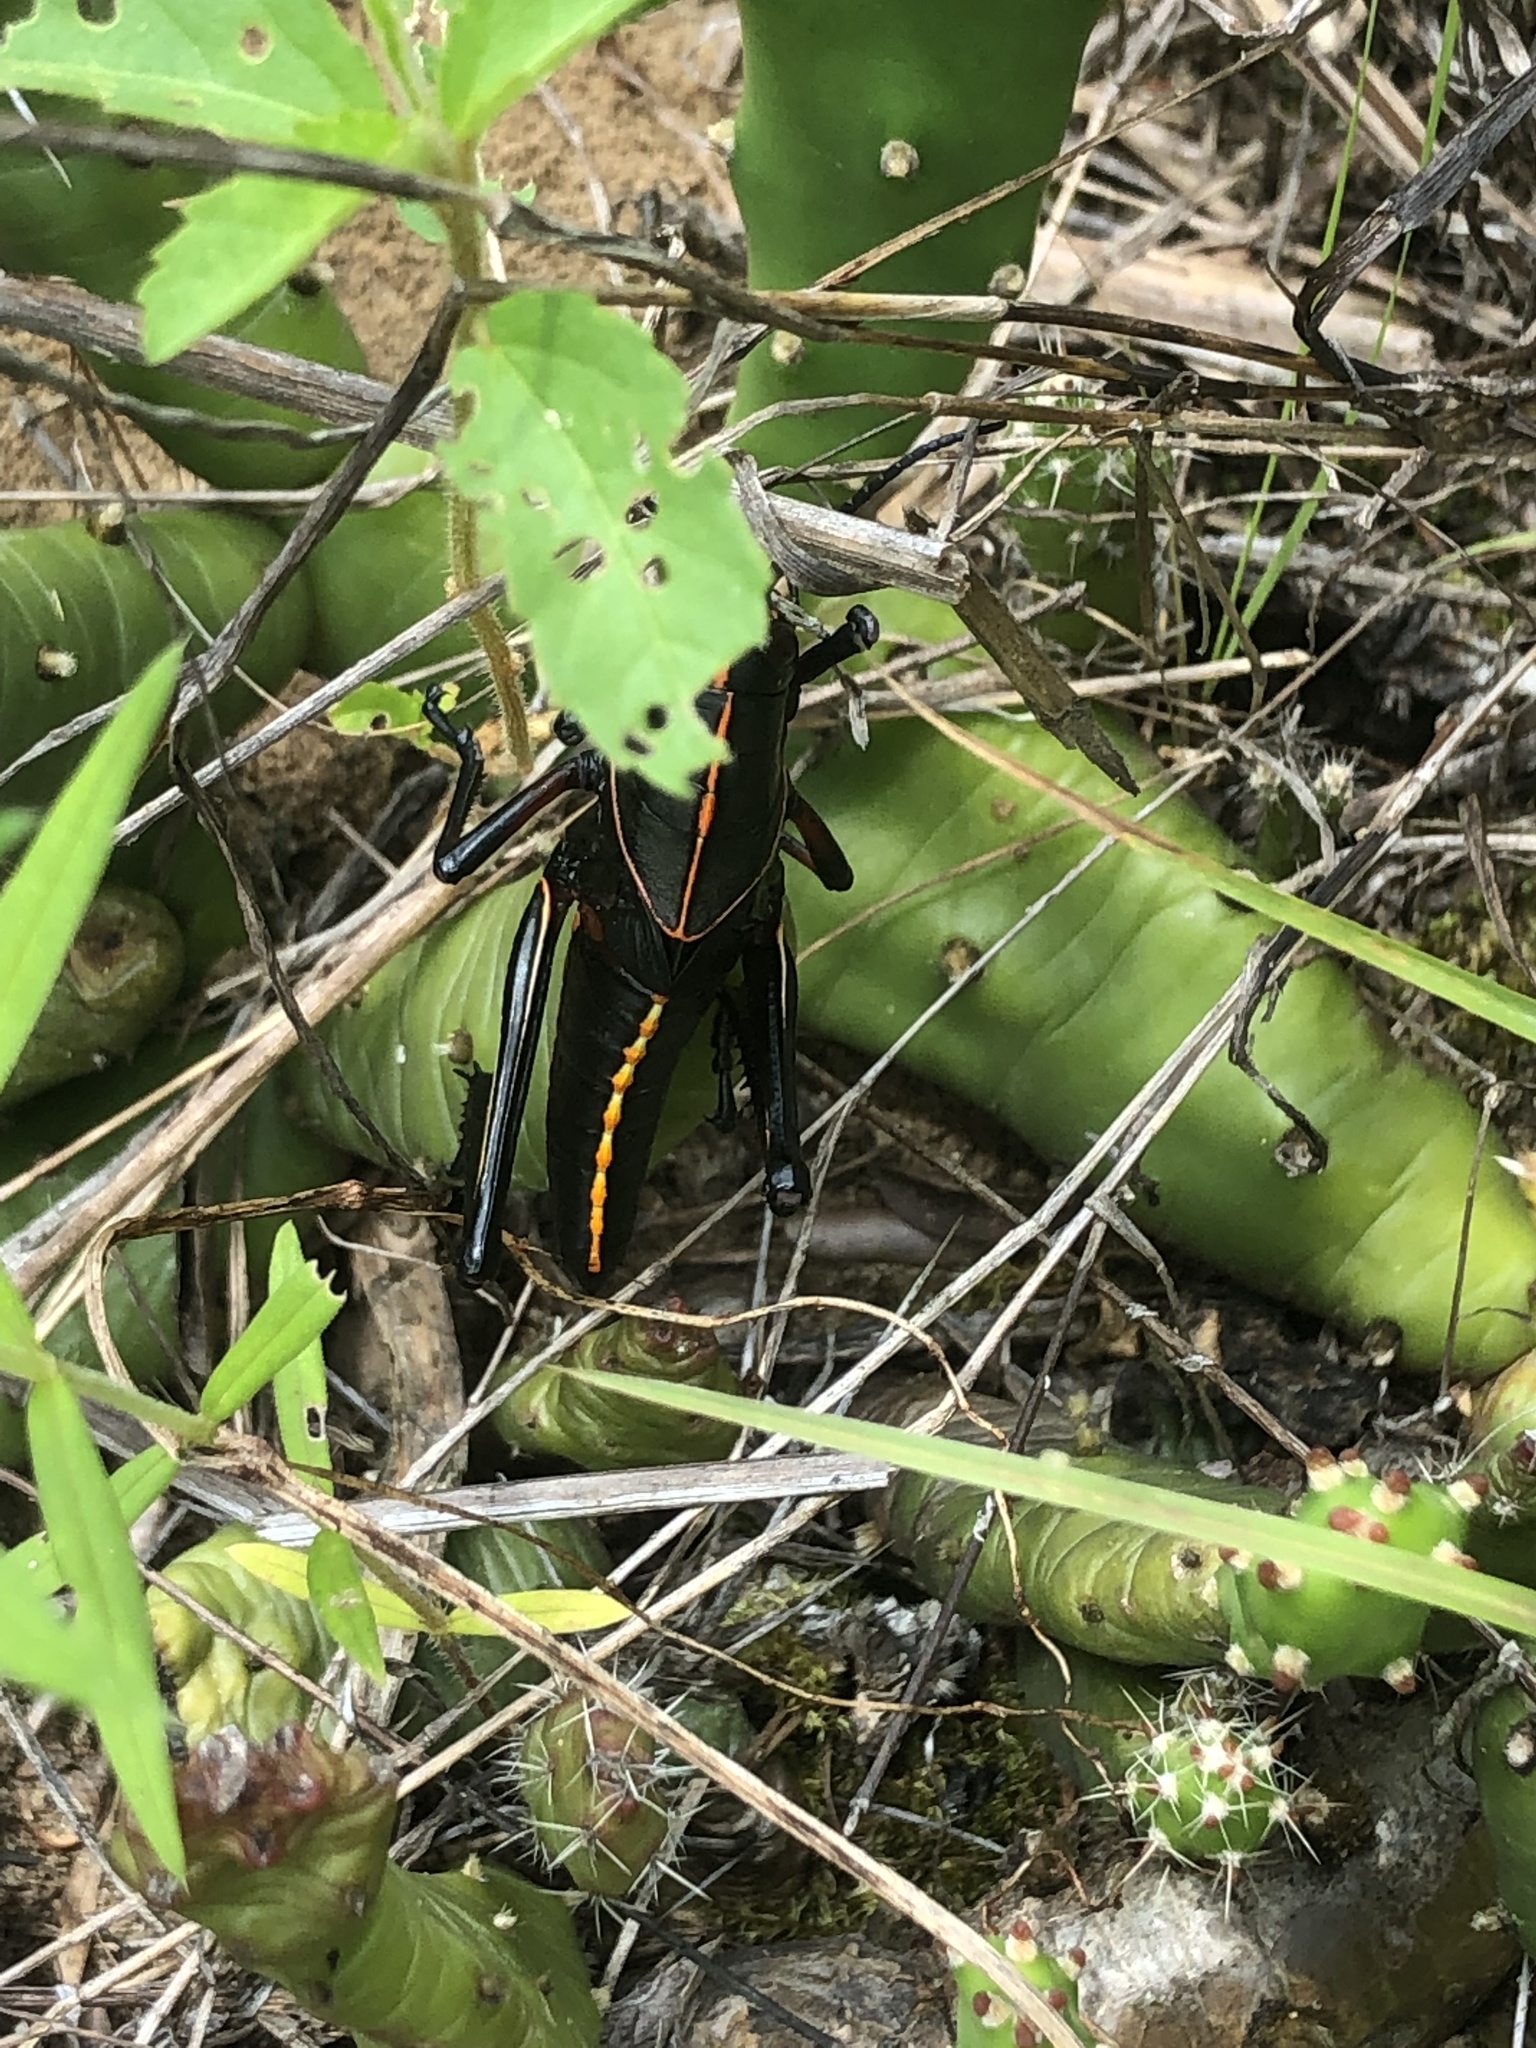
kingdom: Plantae
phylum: Tracheophyta
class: Magnoliopsida
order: Caryophyllales
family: Cactaceae
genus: Opuntia
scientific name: Opuntia drummondii
